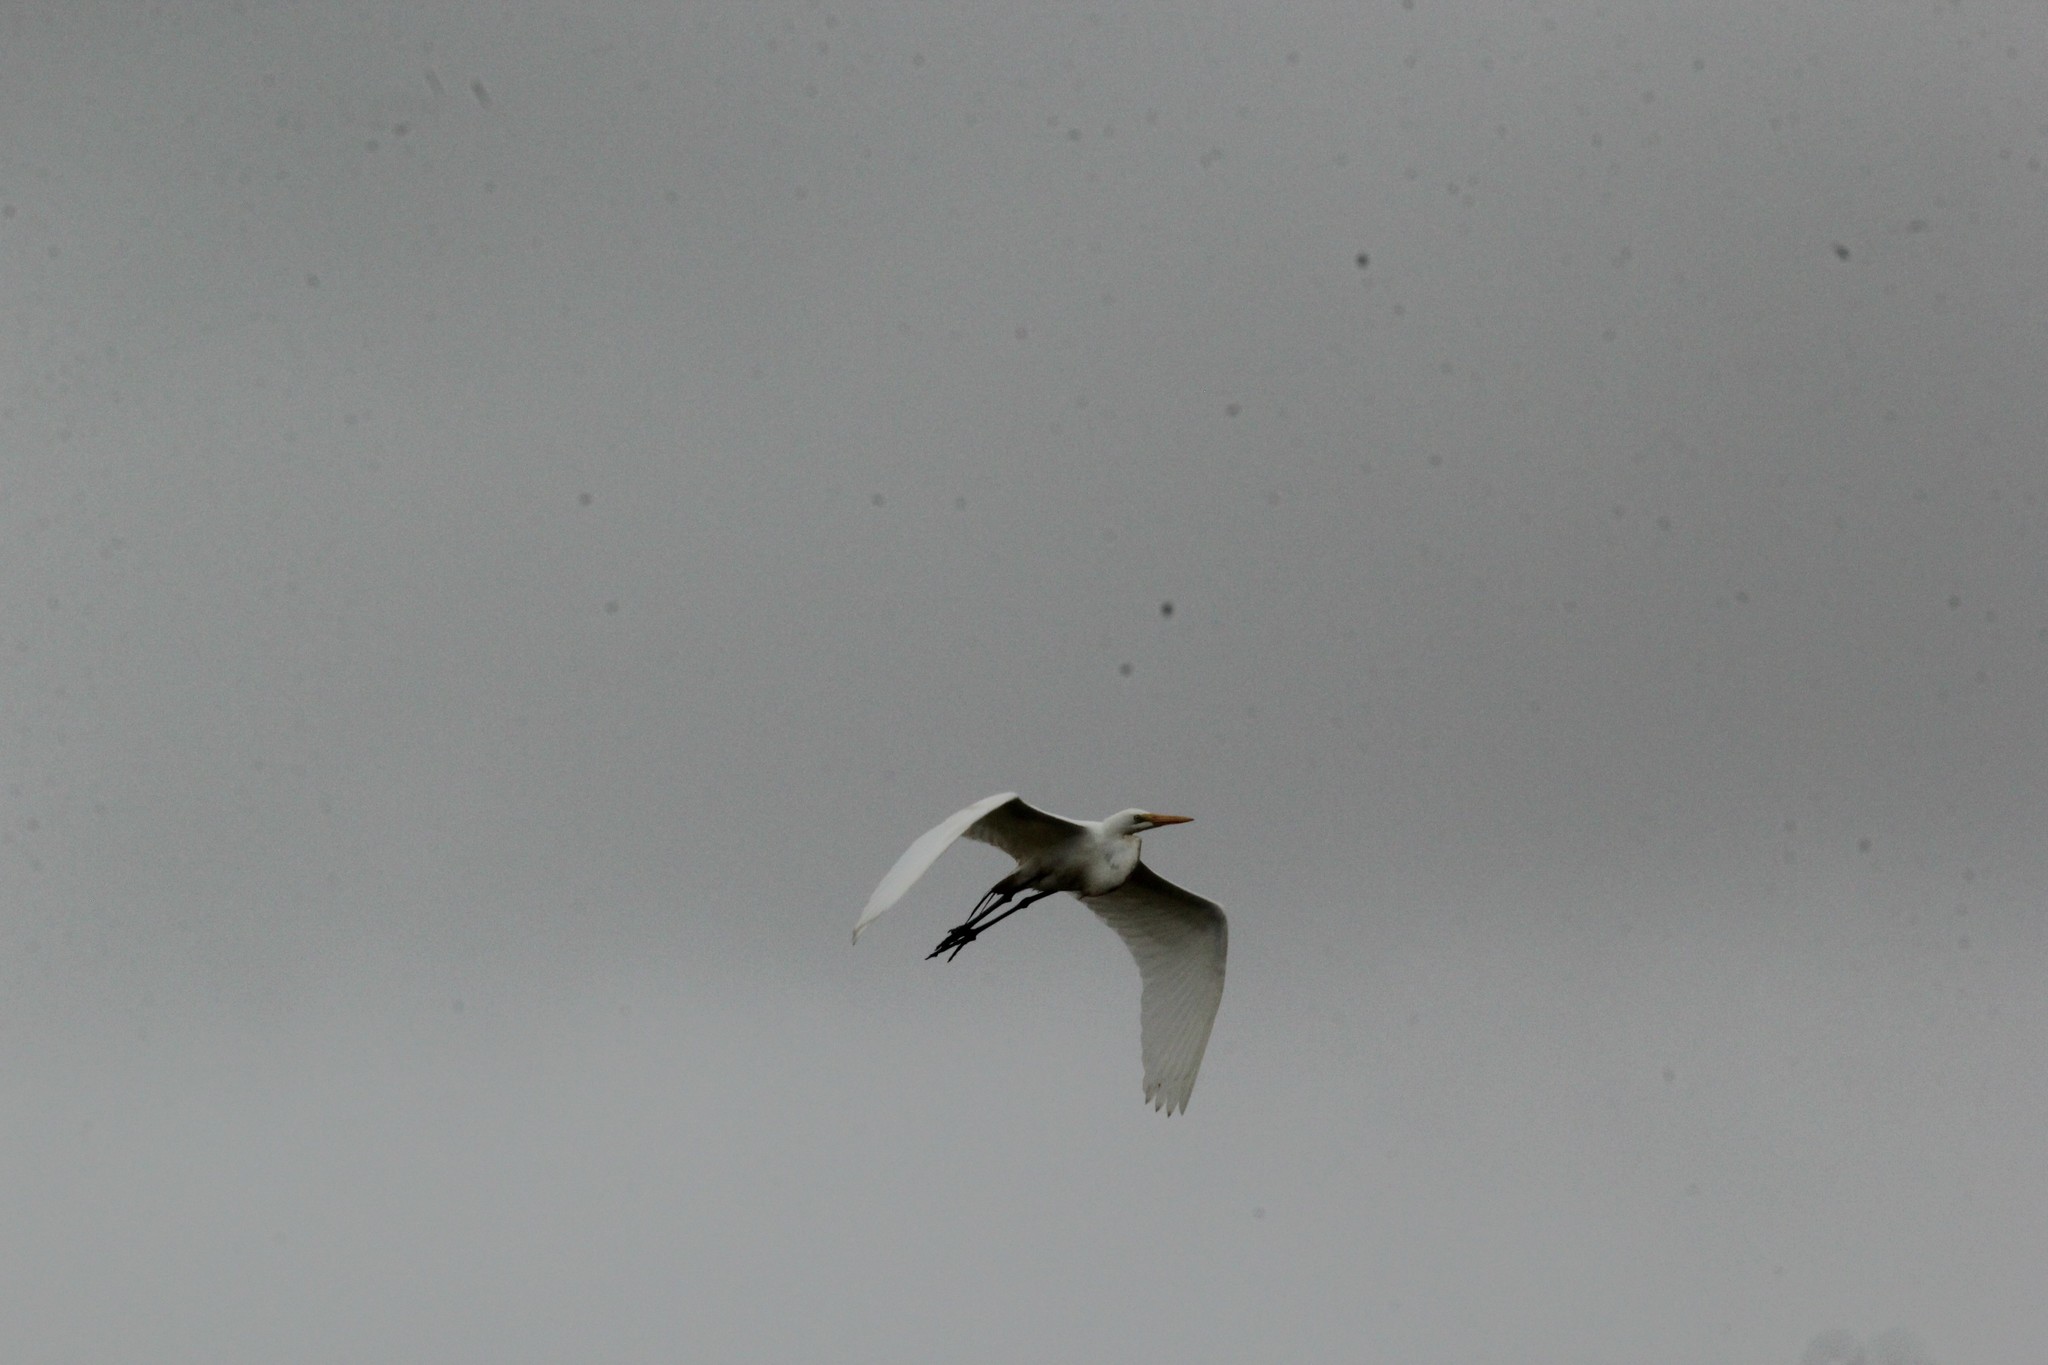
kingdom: Animalia
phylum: Chordata
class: Aves
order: Pelecaniformes
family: Ardeidae
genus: Ardea
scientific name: Ardea alba
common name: Great egret
